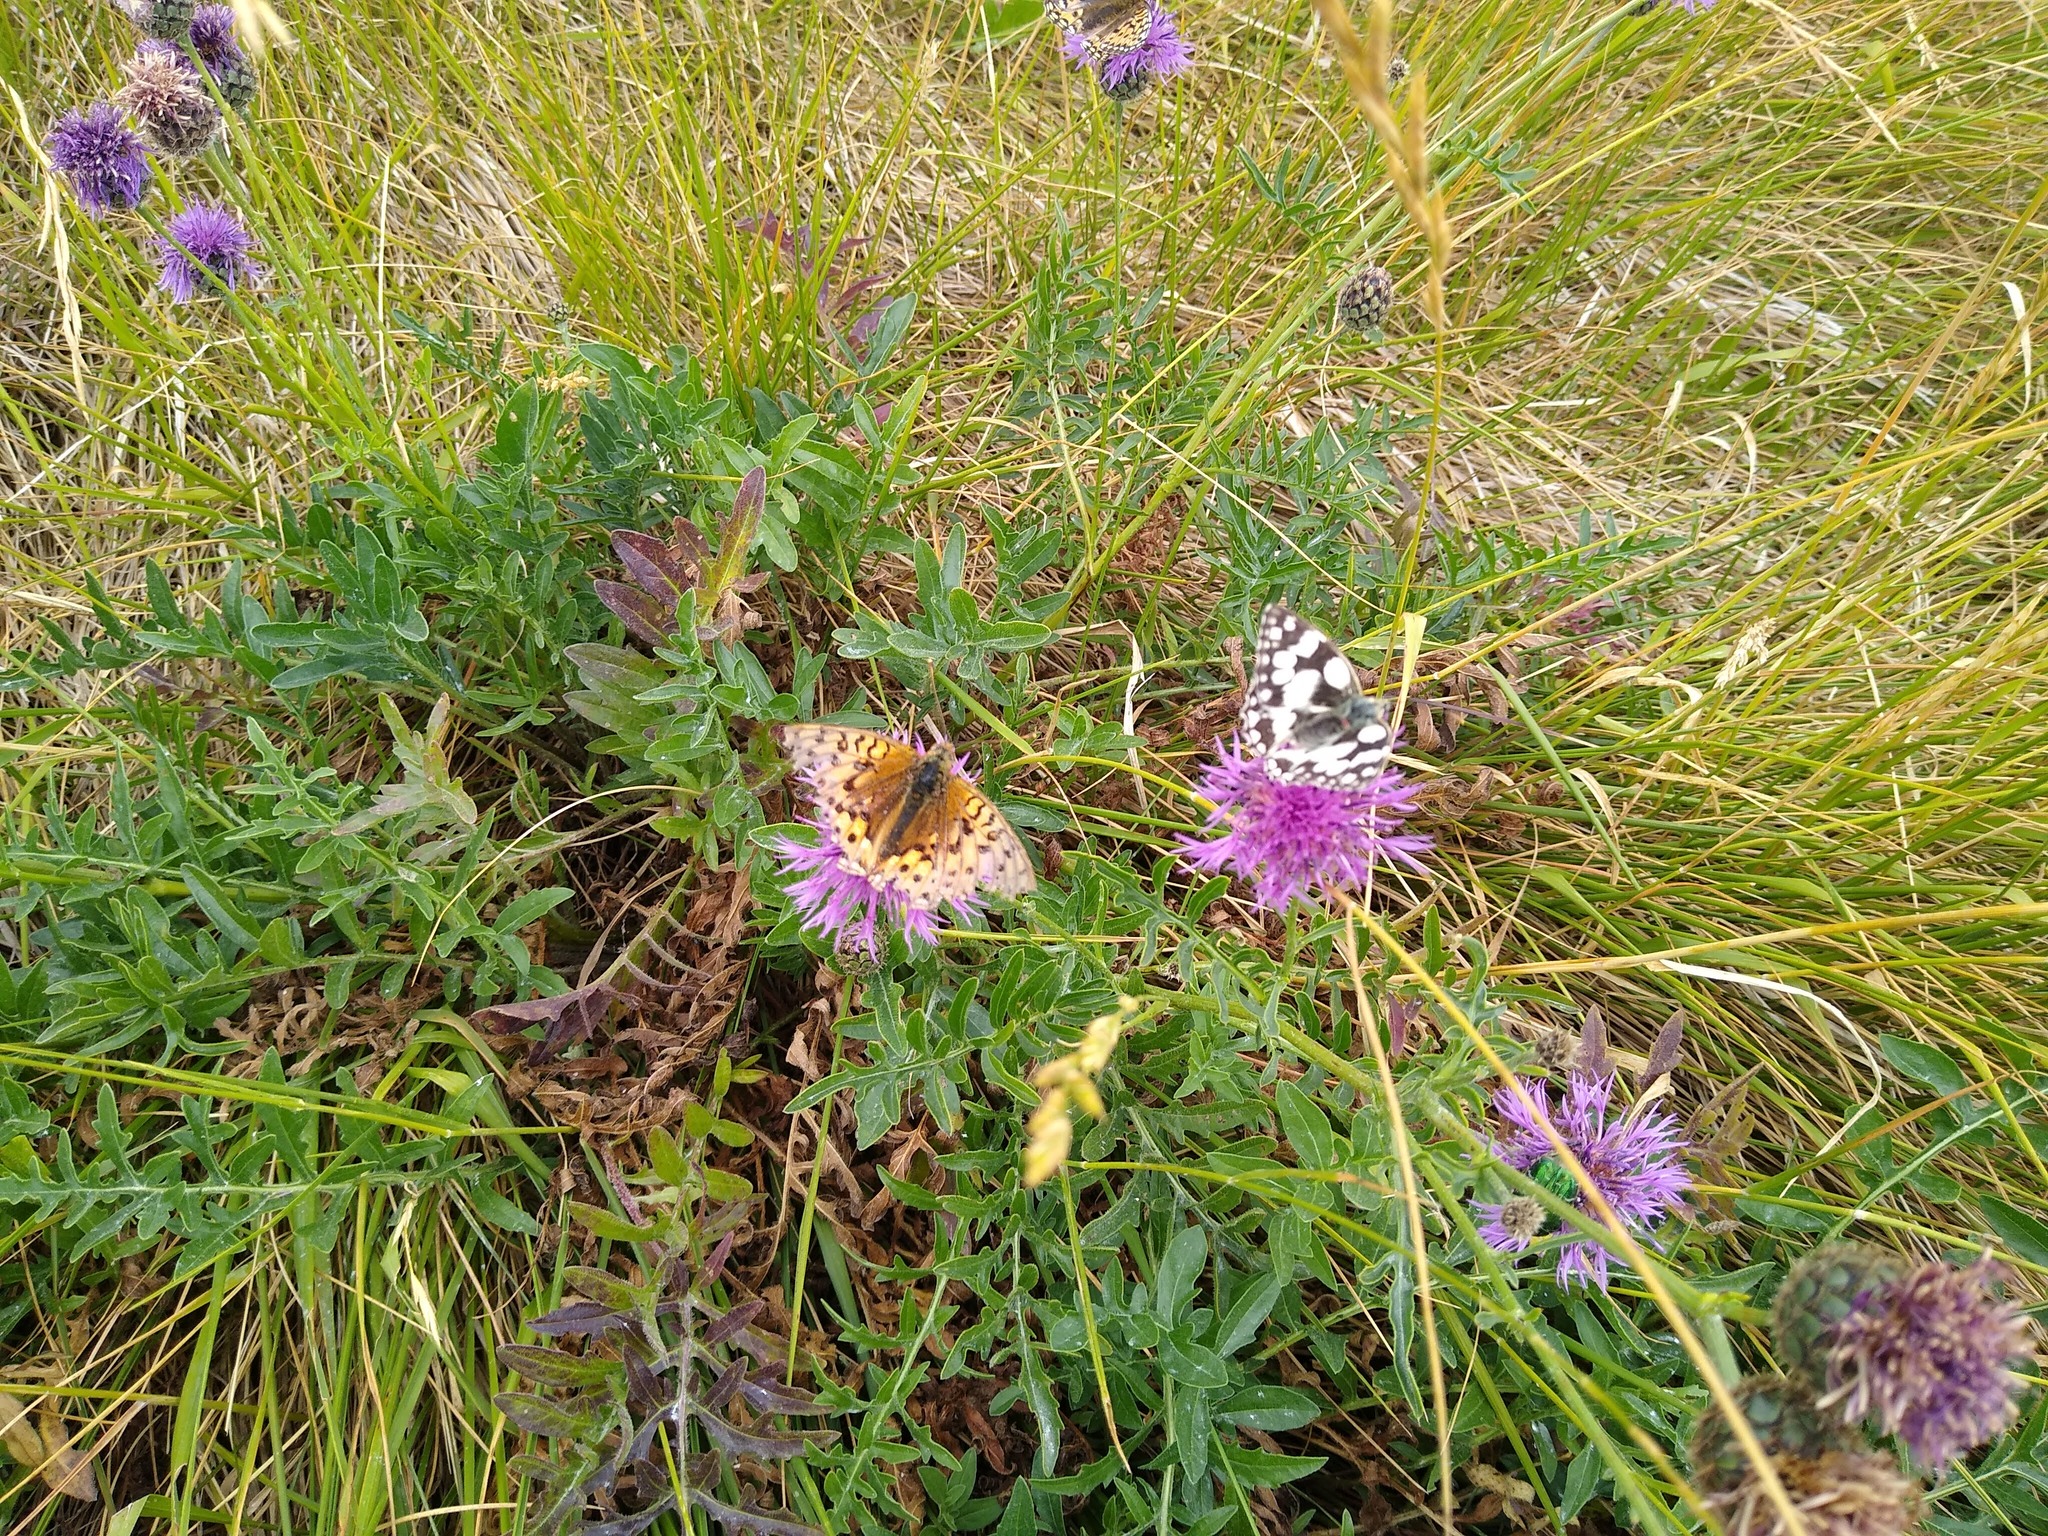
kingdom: Animalia
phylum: Arthropoda
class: Insecta
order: Lepidoptera
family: Nymphalidae
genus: Melanargia
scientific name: Melanargia galathea
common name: Marbled white
